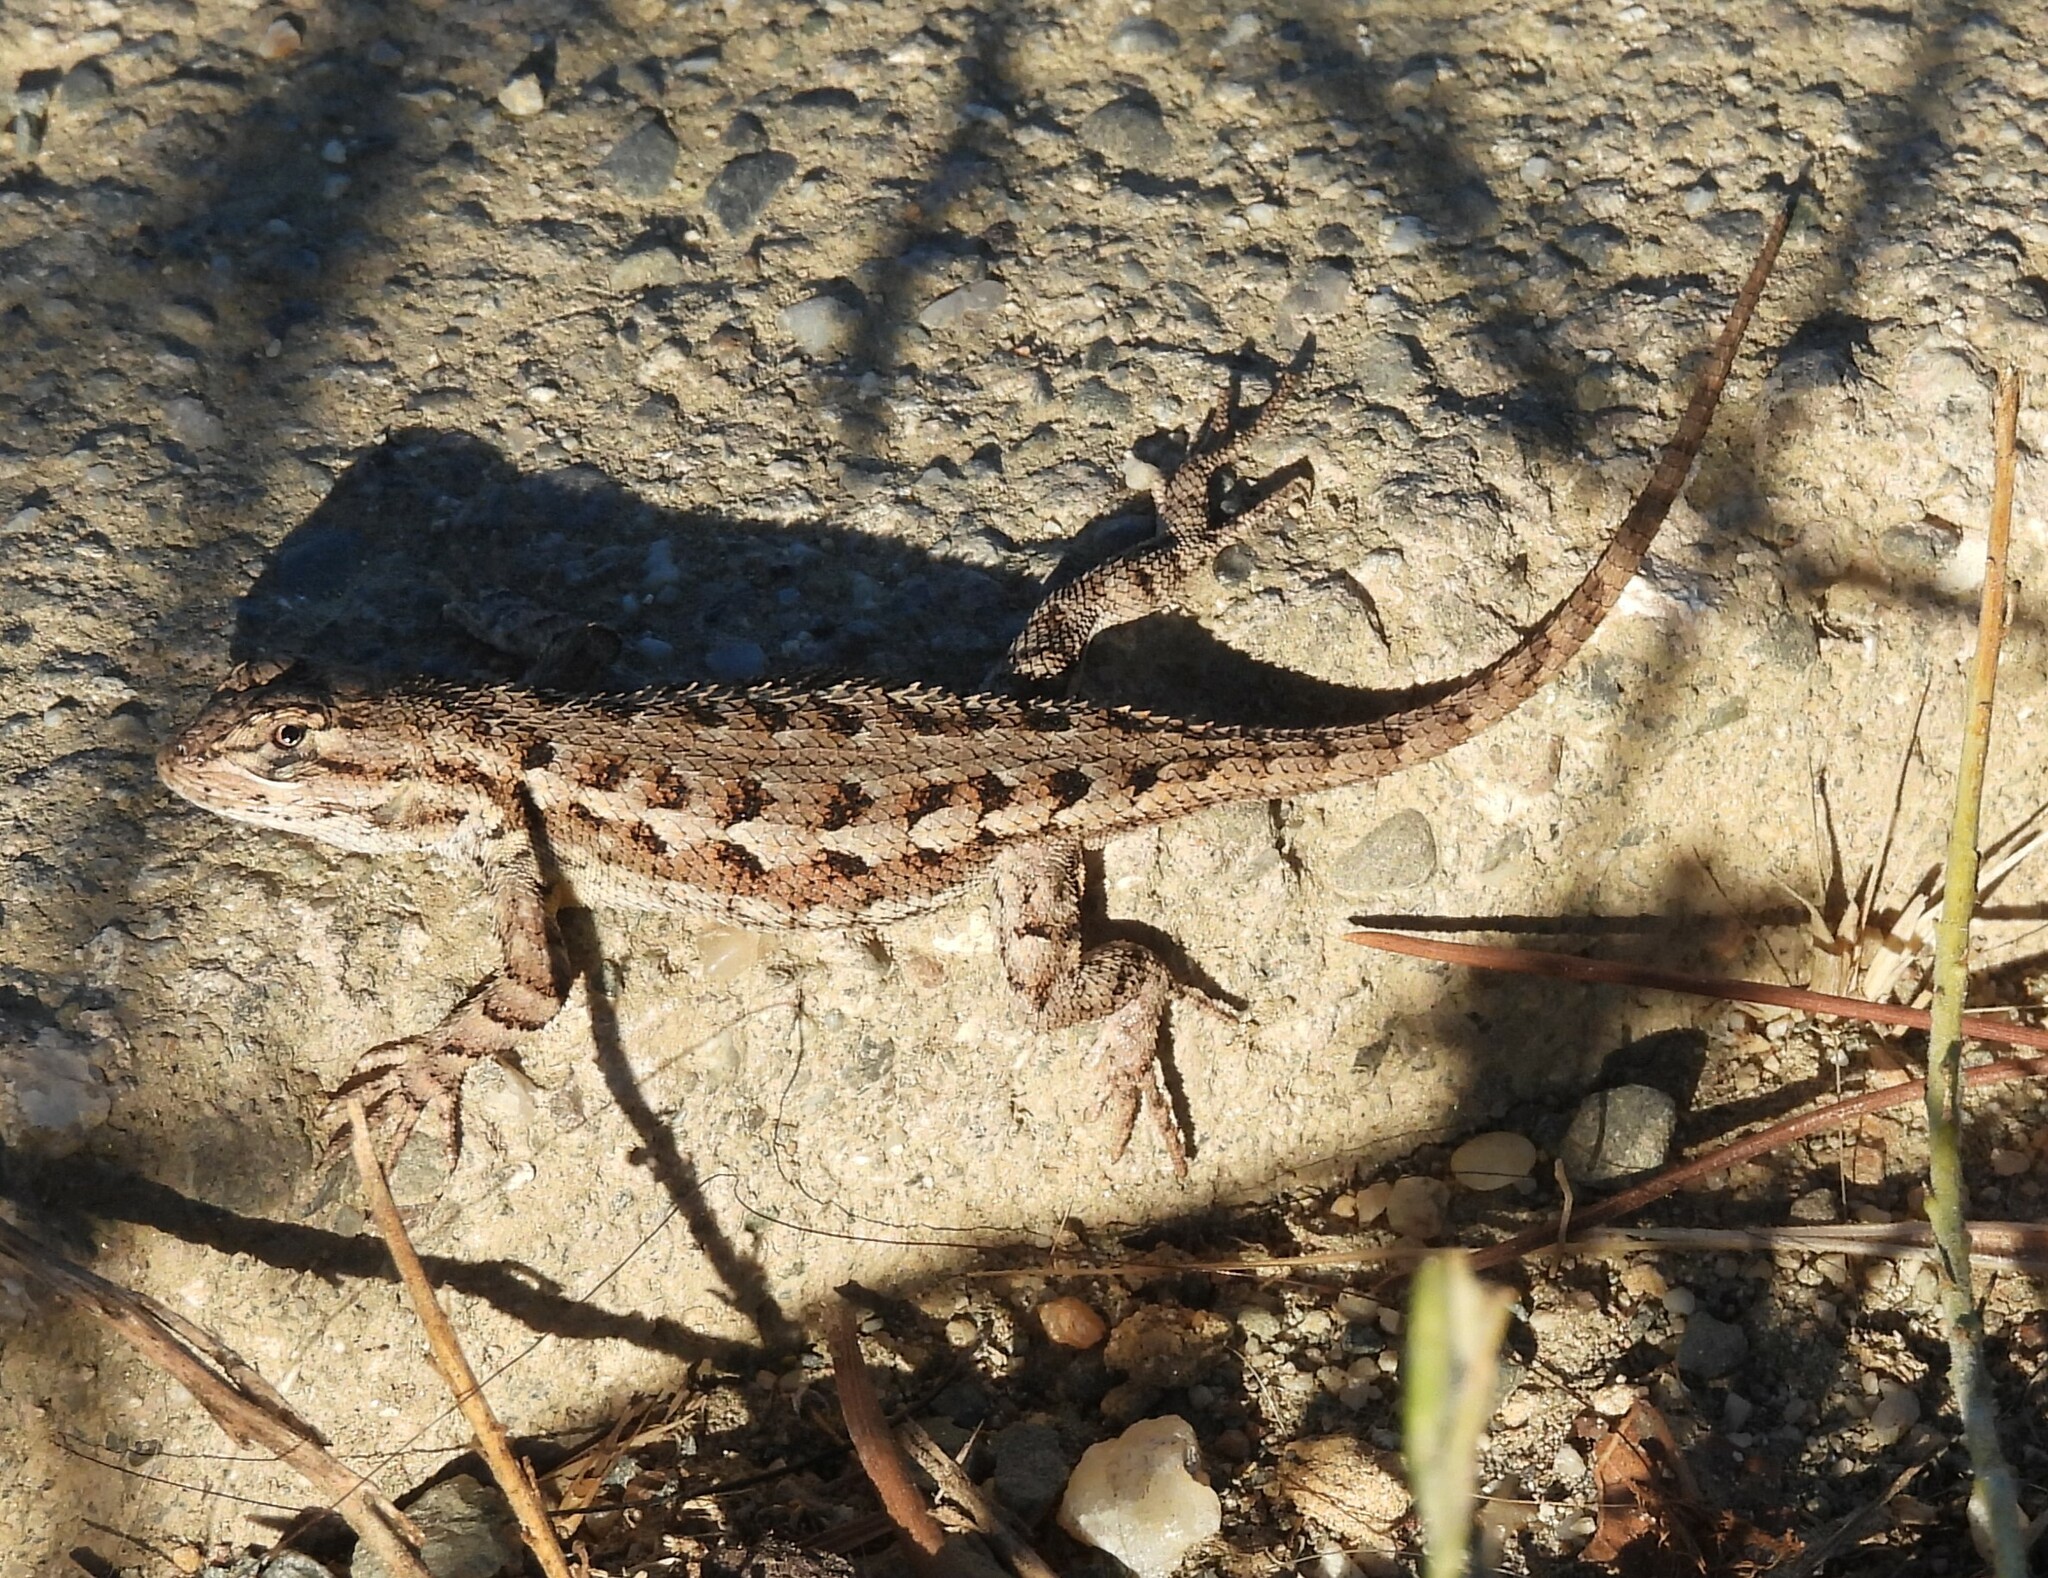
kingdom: Animalia
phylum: Chordata
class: Squamata
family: Phrynosomatidae
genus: Sceloporus
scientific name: Sceloporus occidentalis
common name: Western fence lizard
